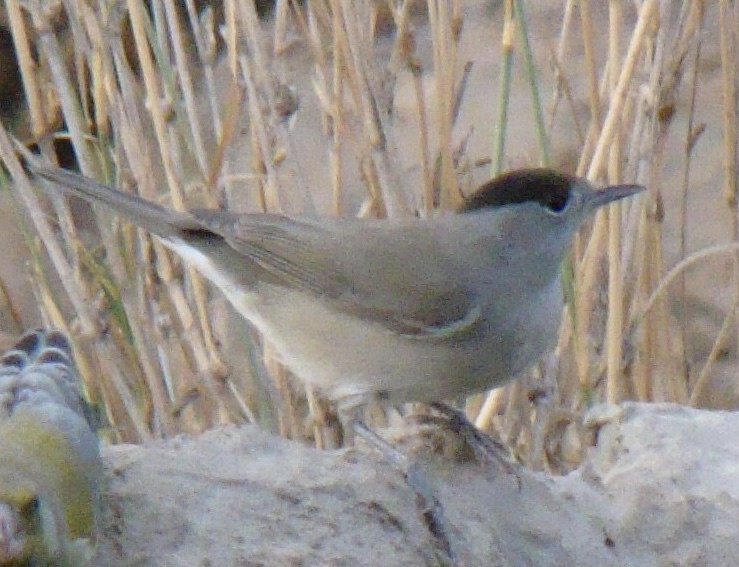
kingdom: Animalia
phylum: Chordata
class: Aves
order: Passeriformes
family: Sylviidae
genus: Sylvia
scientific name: Sylvia atricapilla
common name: Eurasian blackcap
